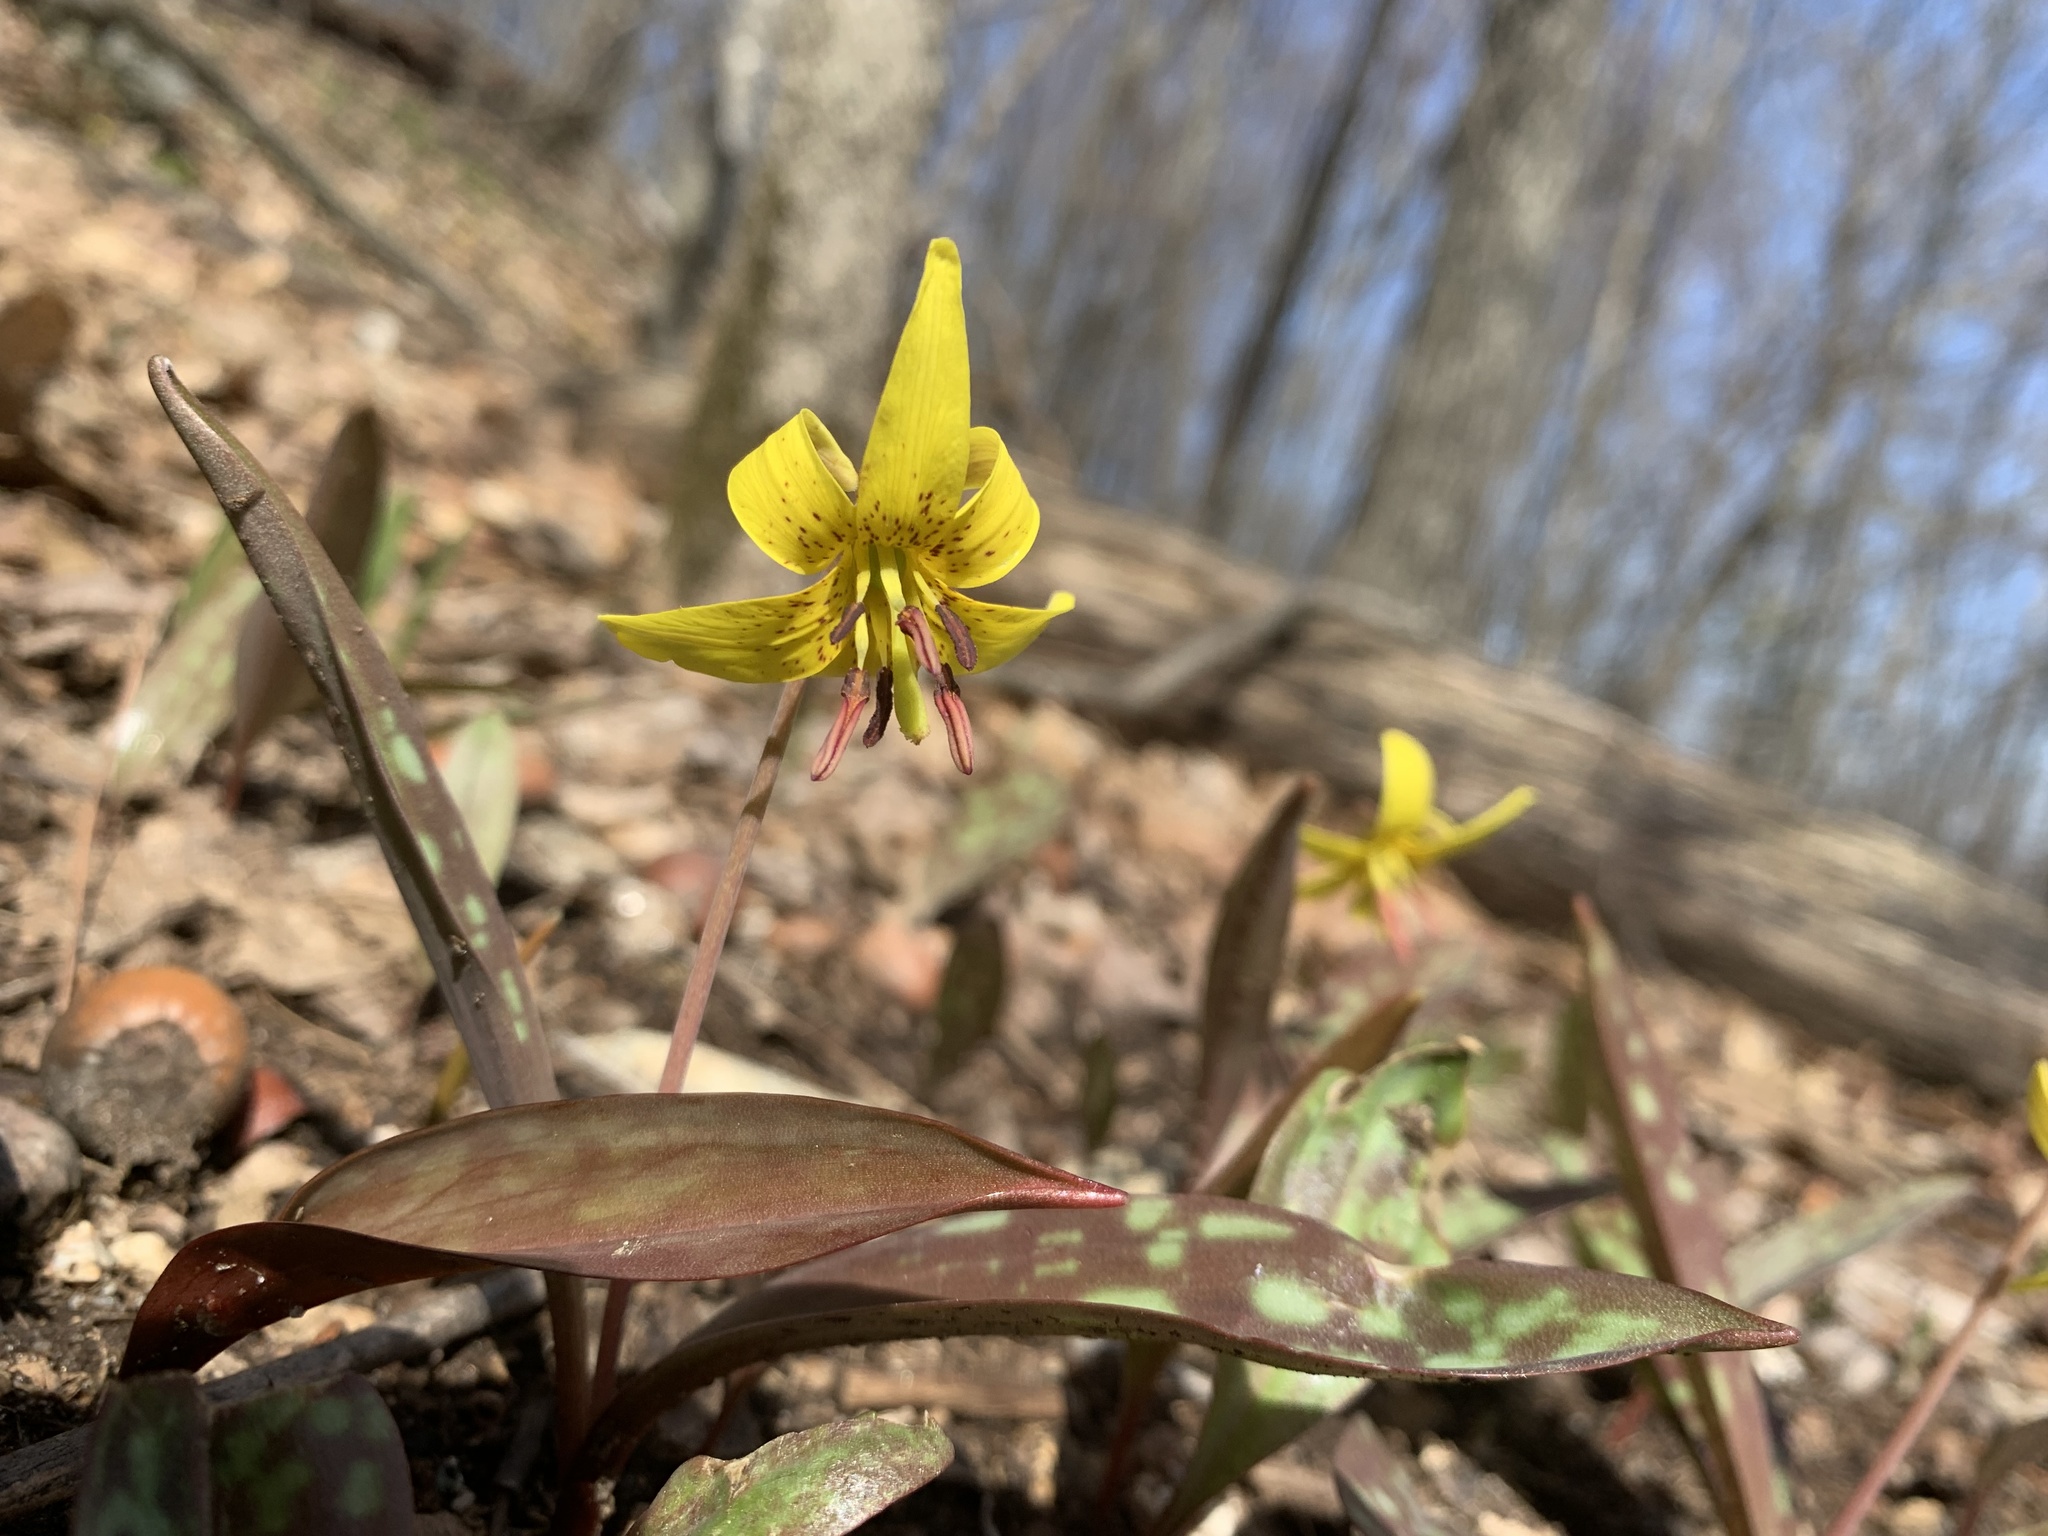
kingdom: Plantae
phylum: Tracheophyta
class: Liliopsida
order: Liliales
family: Liliaceae
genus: Erythronium
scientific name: Erythronium americanum
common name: Yellow adder's-tongue
